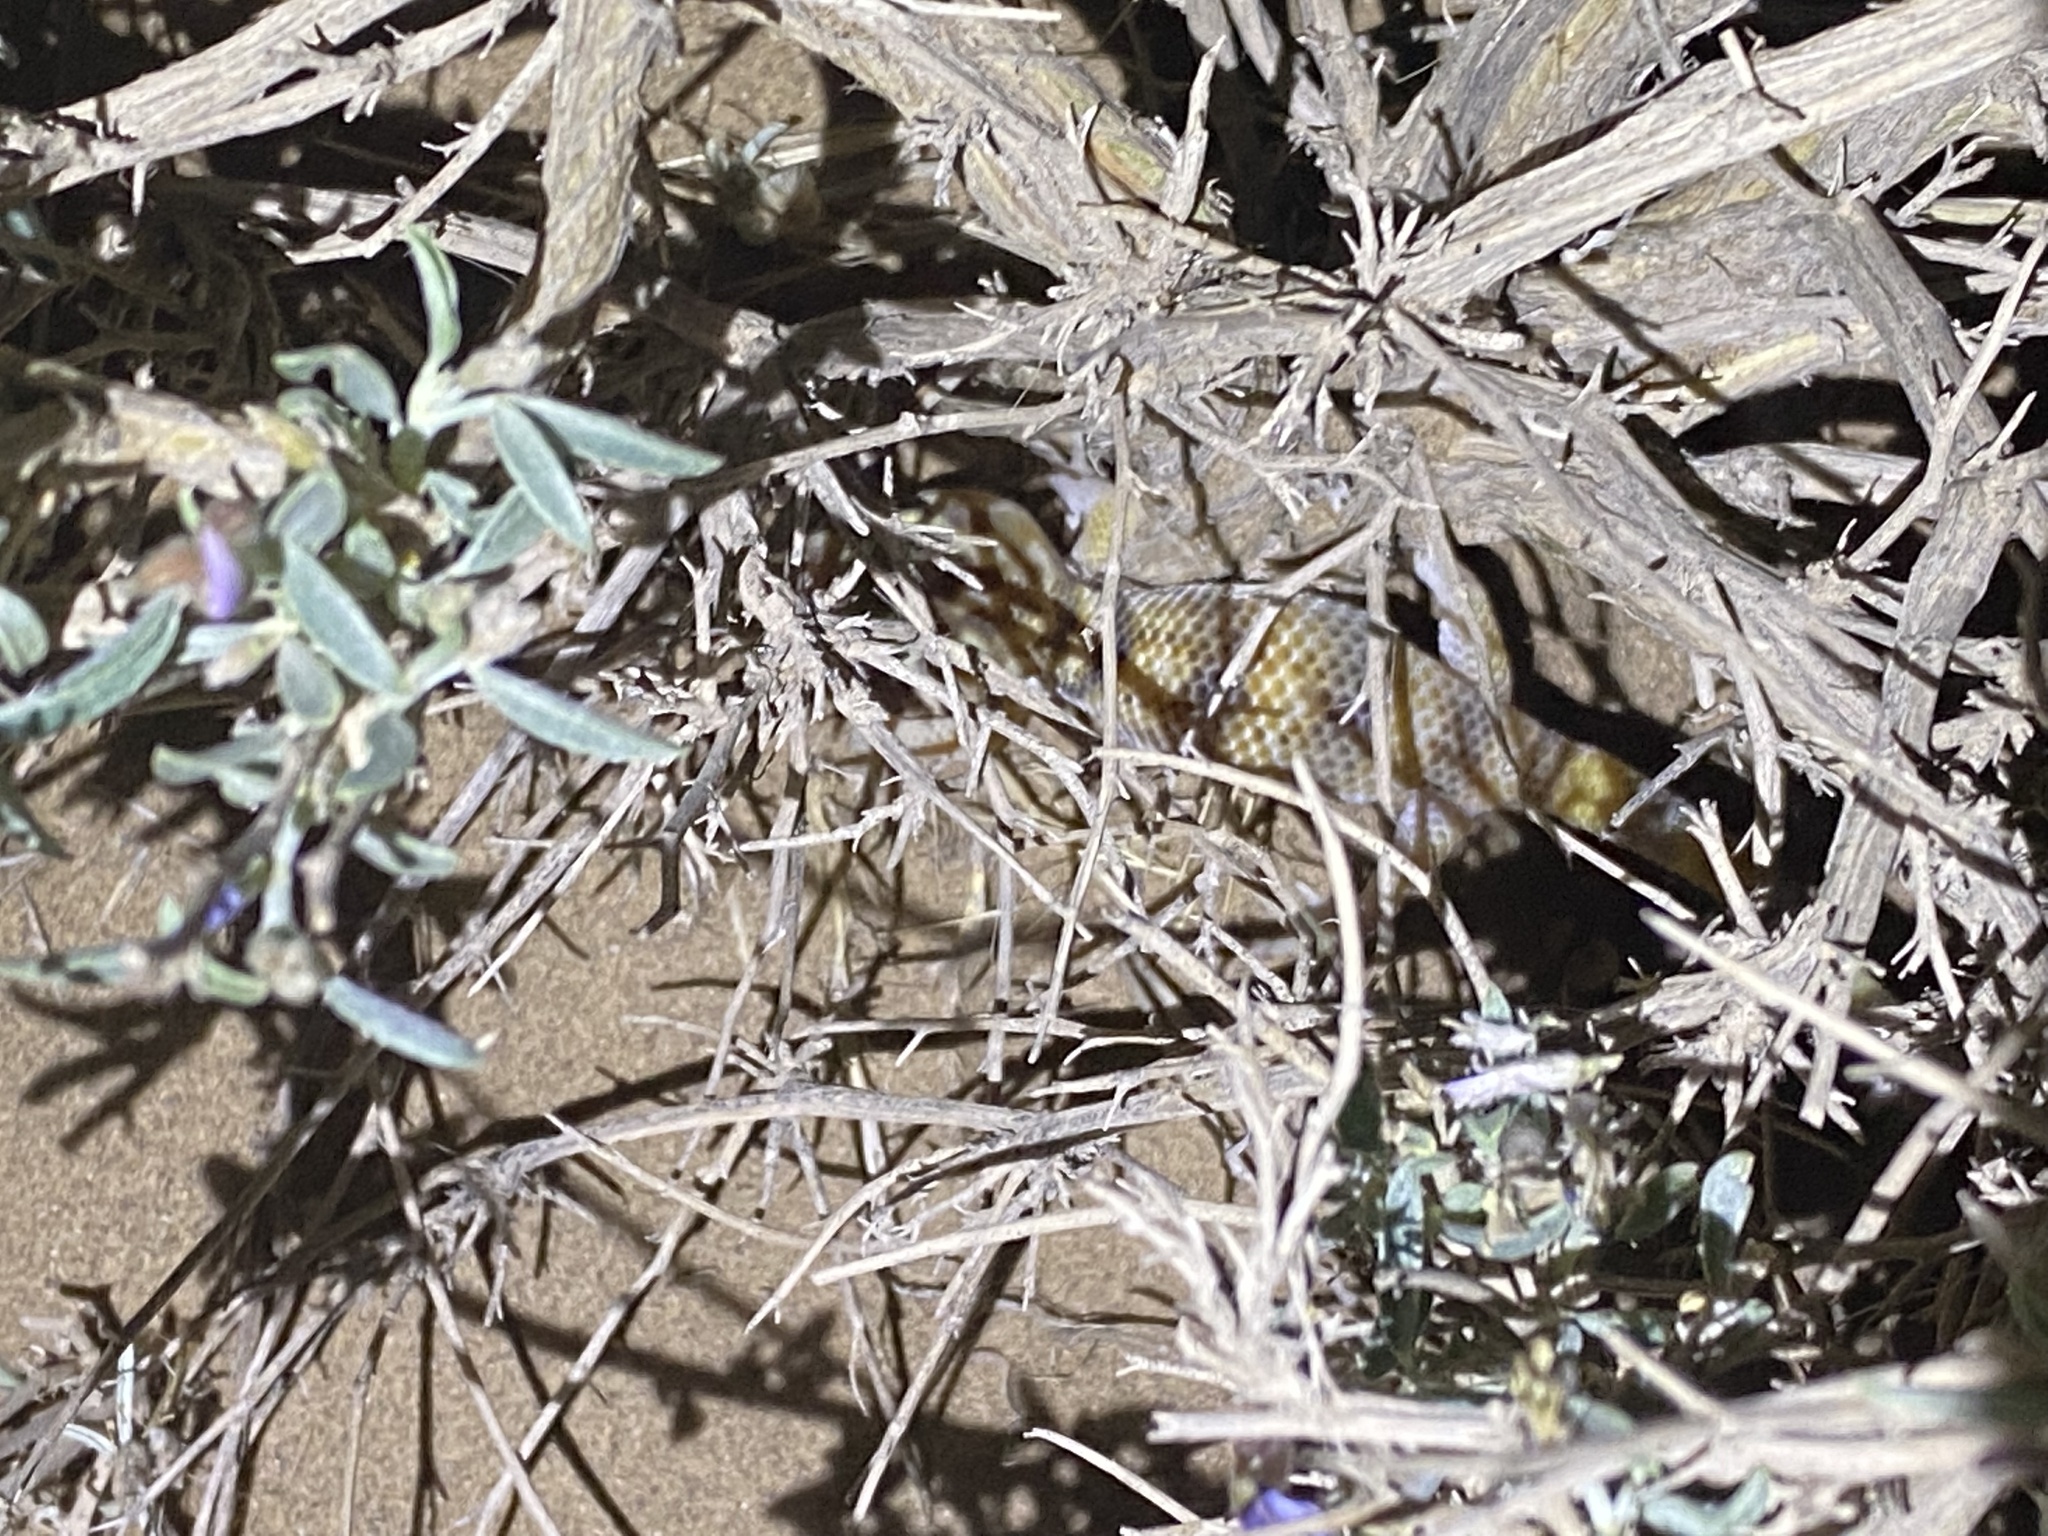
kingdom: Animalia
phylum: Chordata
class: Squamata
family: Sphaerodactylidae
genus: Teratoscincus
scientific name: Teratoscincus keyserlingii
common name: Frog-eyed gecko
